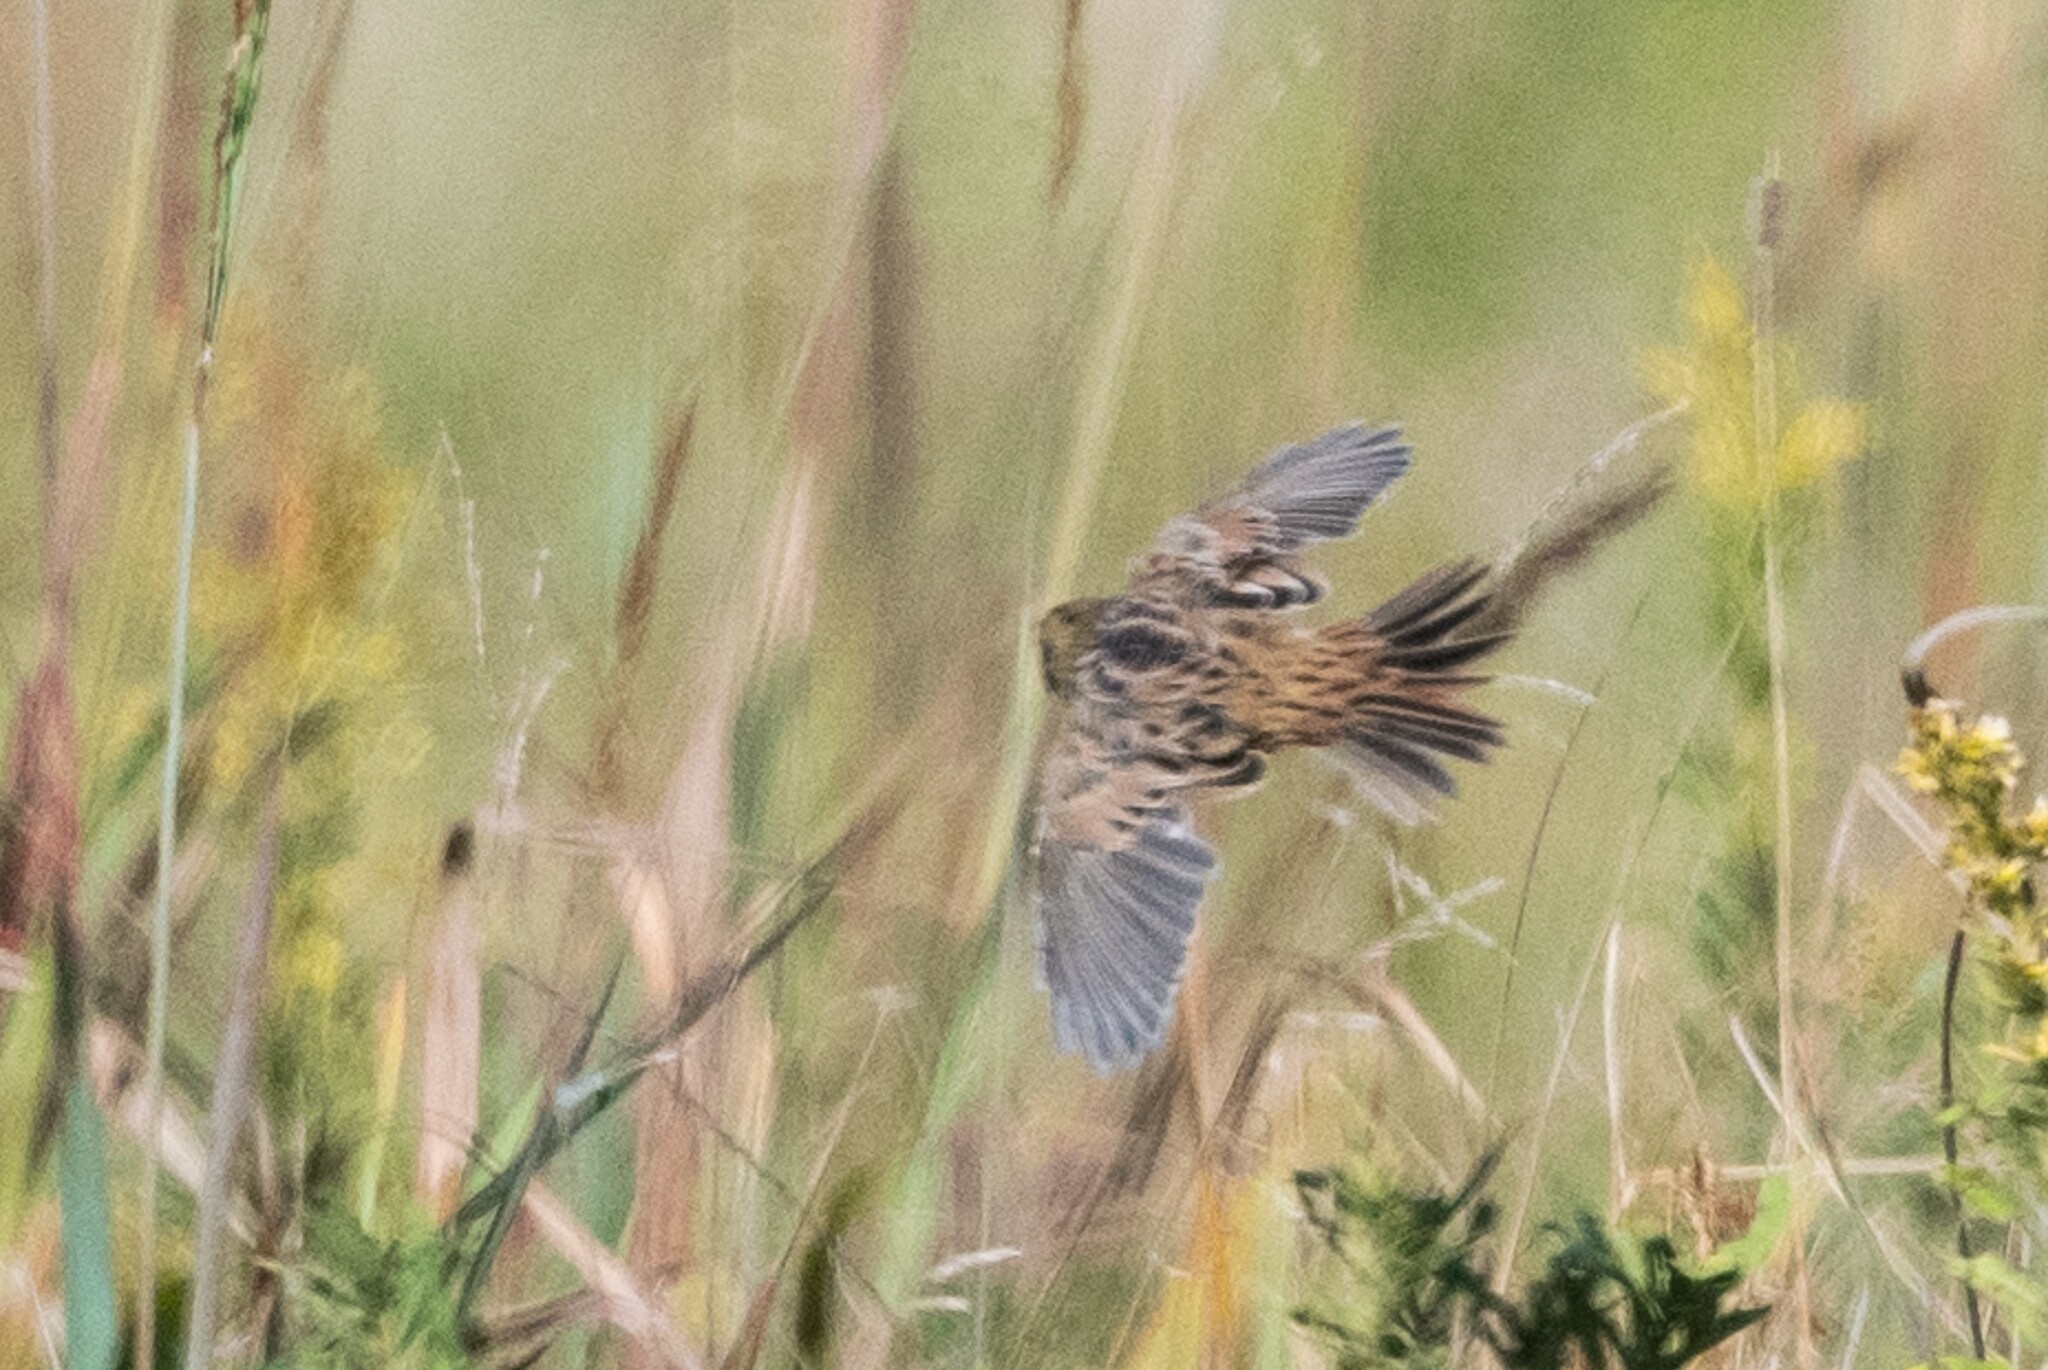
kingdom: Animalia
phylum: Chordata
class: Aves
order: Passeriformes
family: Passerellidae
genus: Centronyx
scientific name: Centronyx henslowii
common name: Henslow's sparrow
